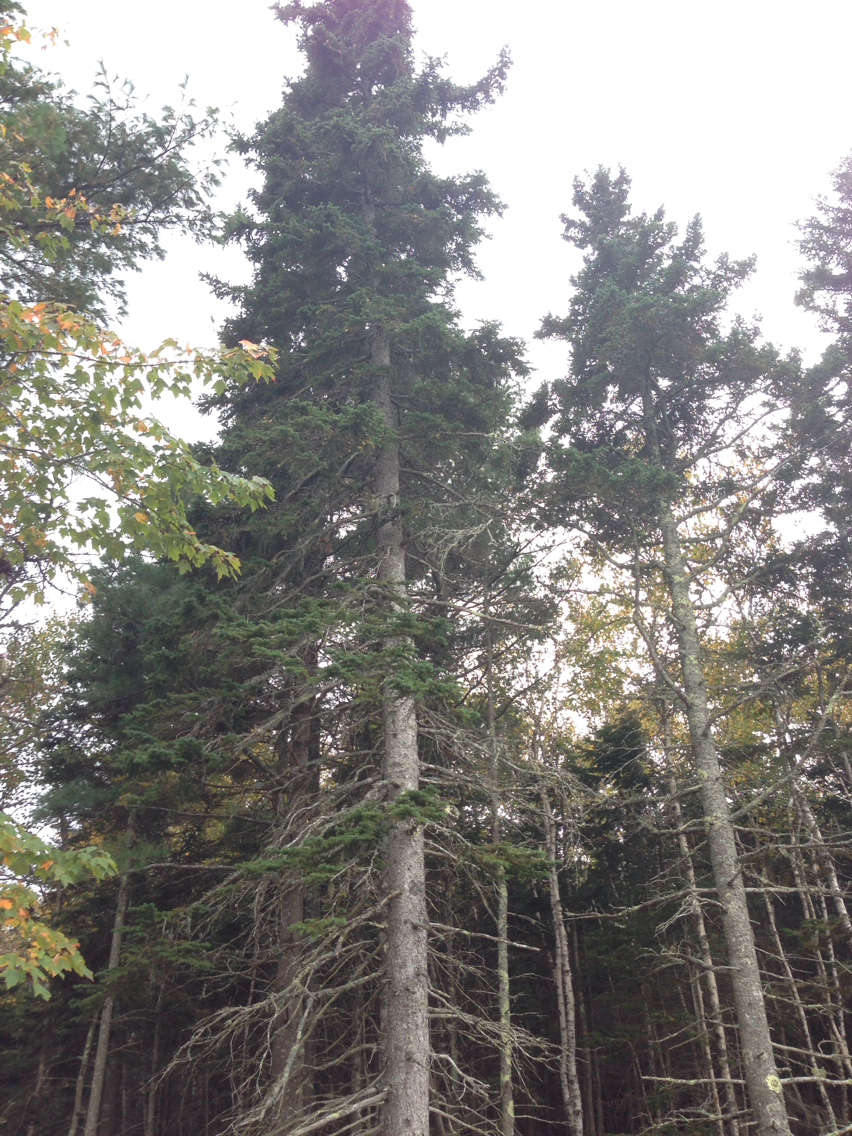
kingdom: Plantae
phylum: Tracheophyta
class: Pinopsida
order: Pinales
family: Pinaceae
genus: Picea
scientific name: Picea
